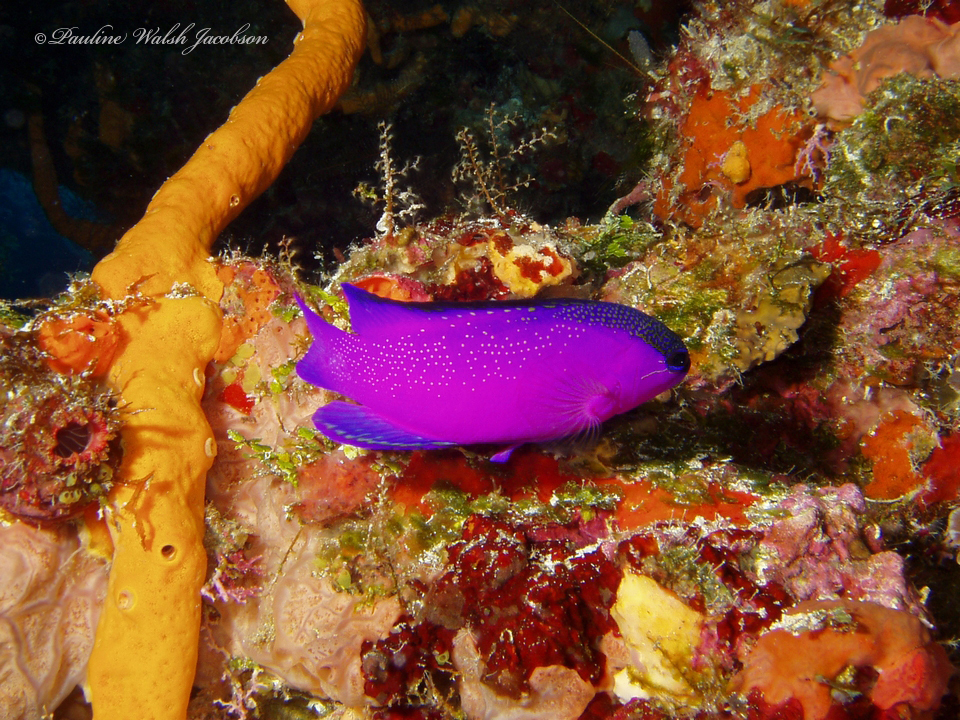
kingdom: Animalia
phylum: Chordata
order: Perciformes
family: Grammatidae
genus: Gramma
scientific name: Gramma melacara
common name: Blackcap basslet
